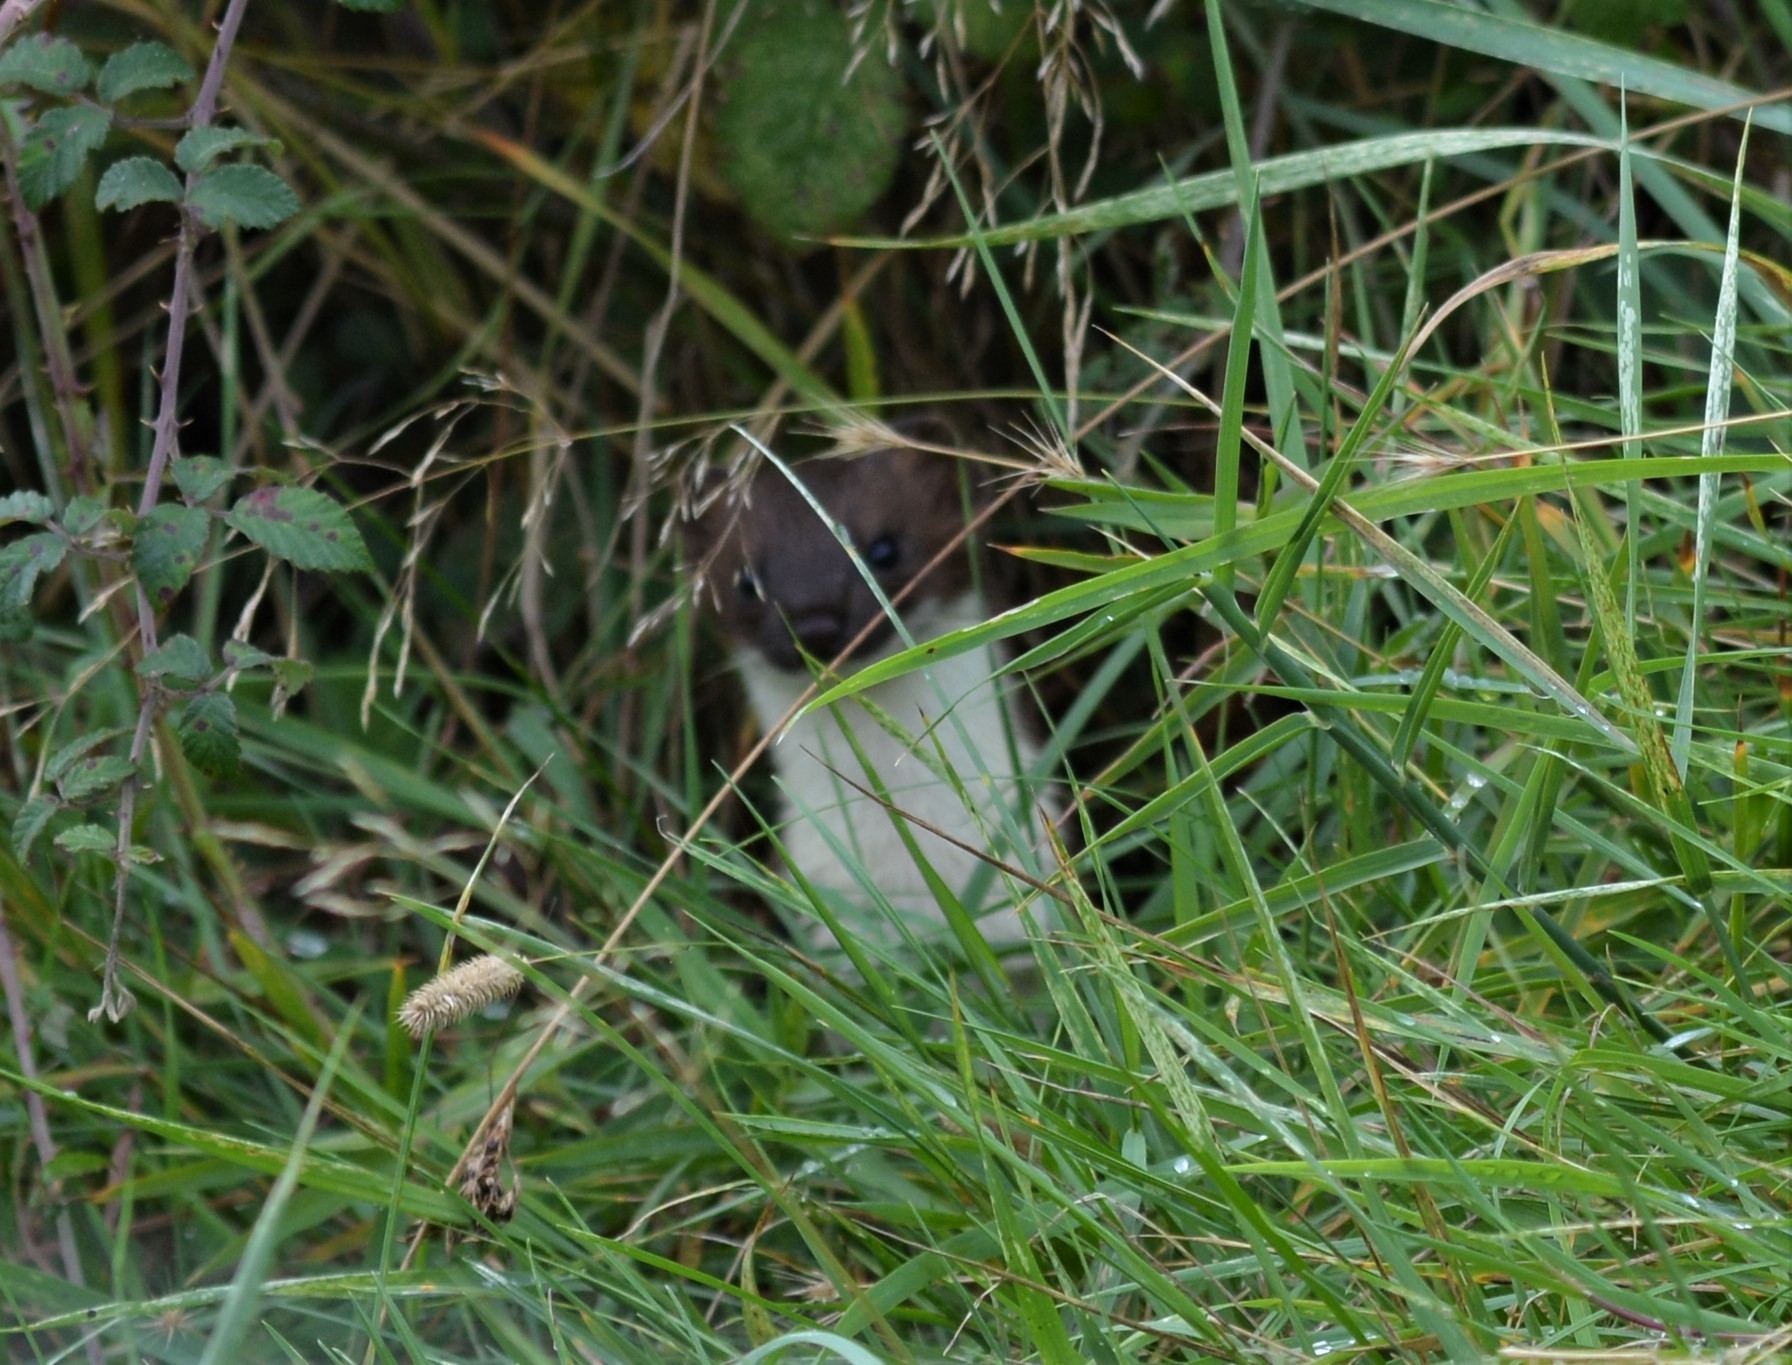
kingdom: Animalia
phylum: Chordata
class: Mammalia
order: Carnivora
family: Mustelidae
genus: Mustela
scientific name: Mustela nivalis
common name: Least weasel
